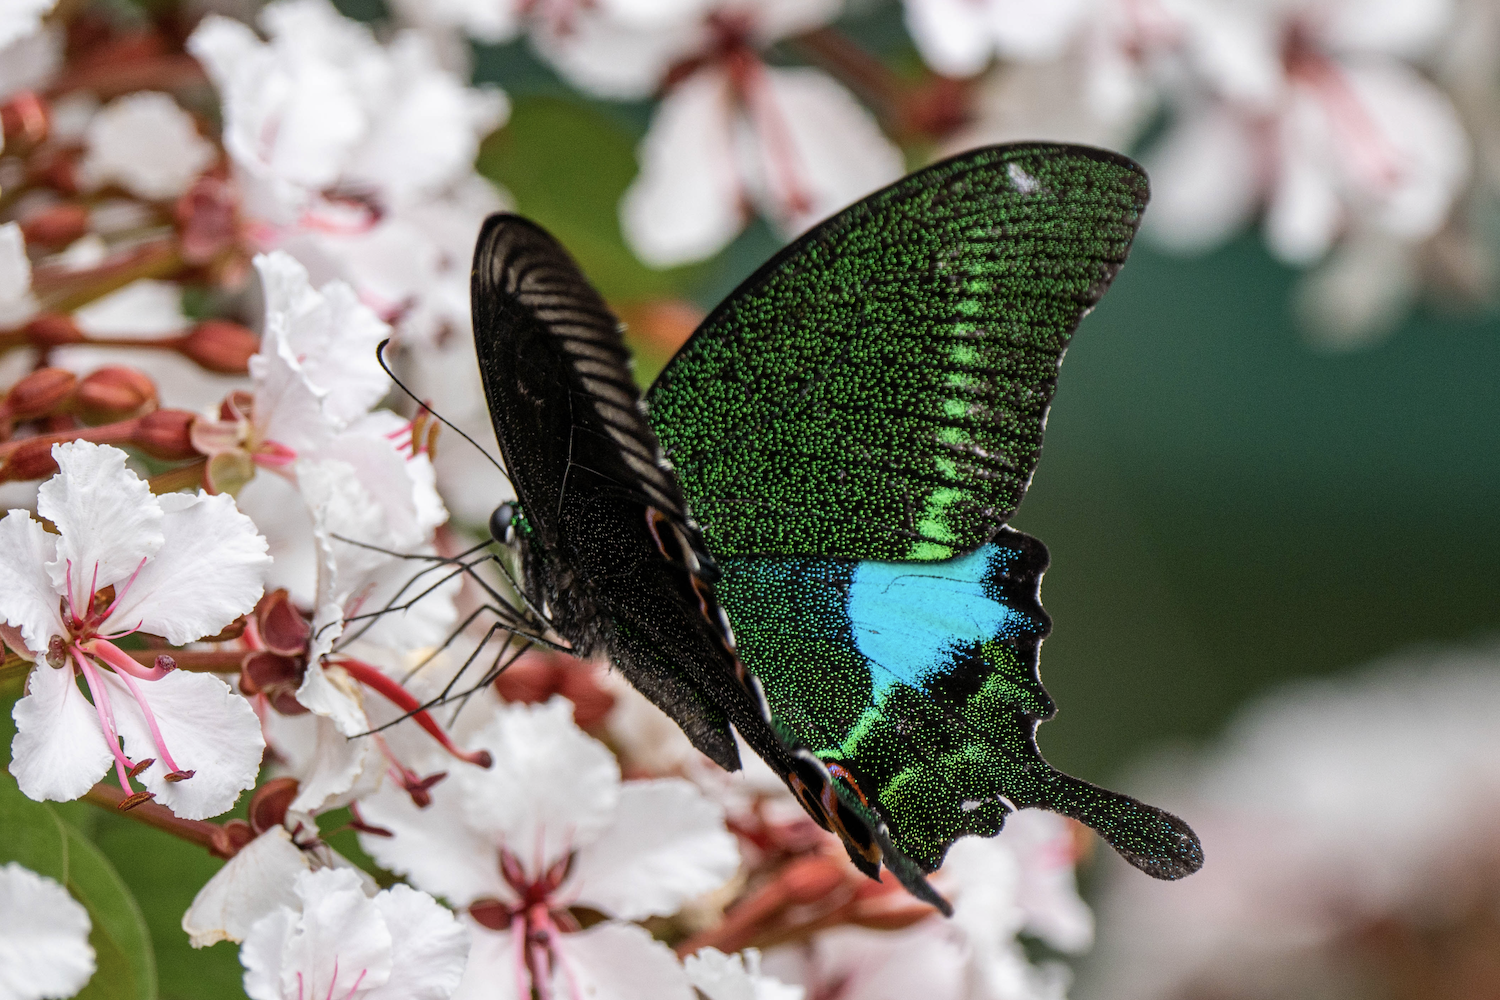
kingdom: Animalia
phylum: Arthropoda
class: Insecta
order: Lepidoptera
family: Papilionidae
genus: Papilio
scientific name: Papilio paris
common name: Paris peacock
